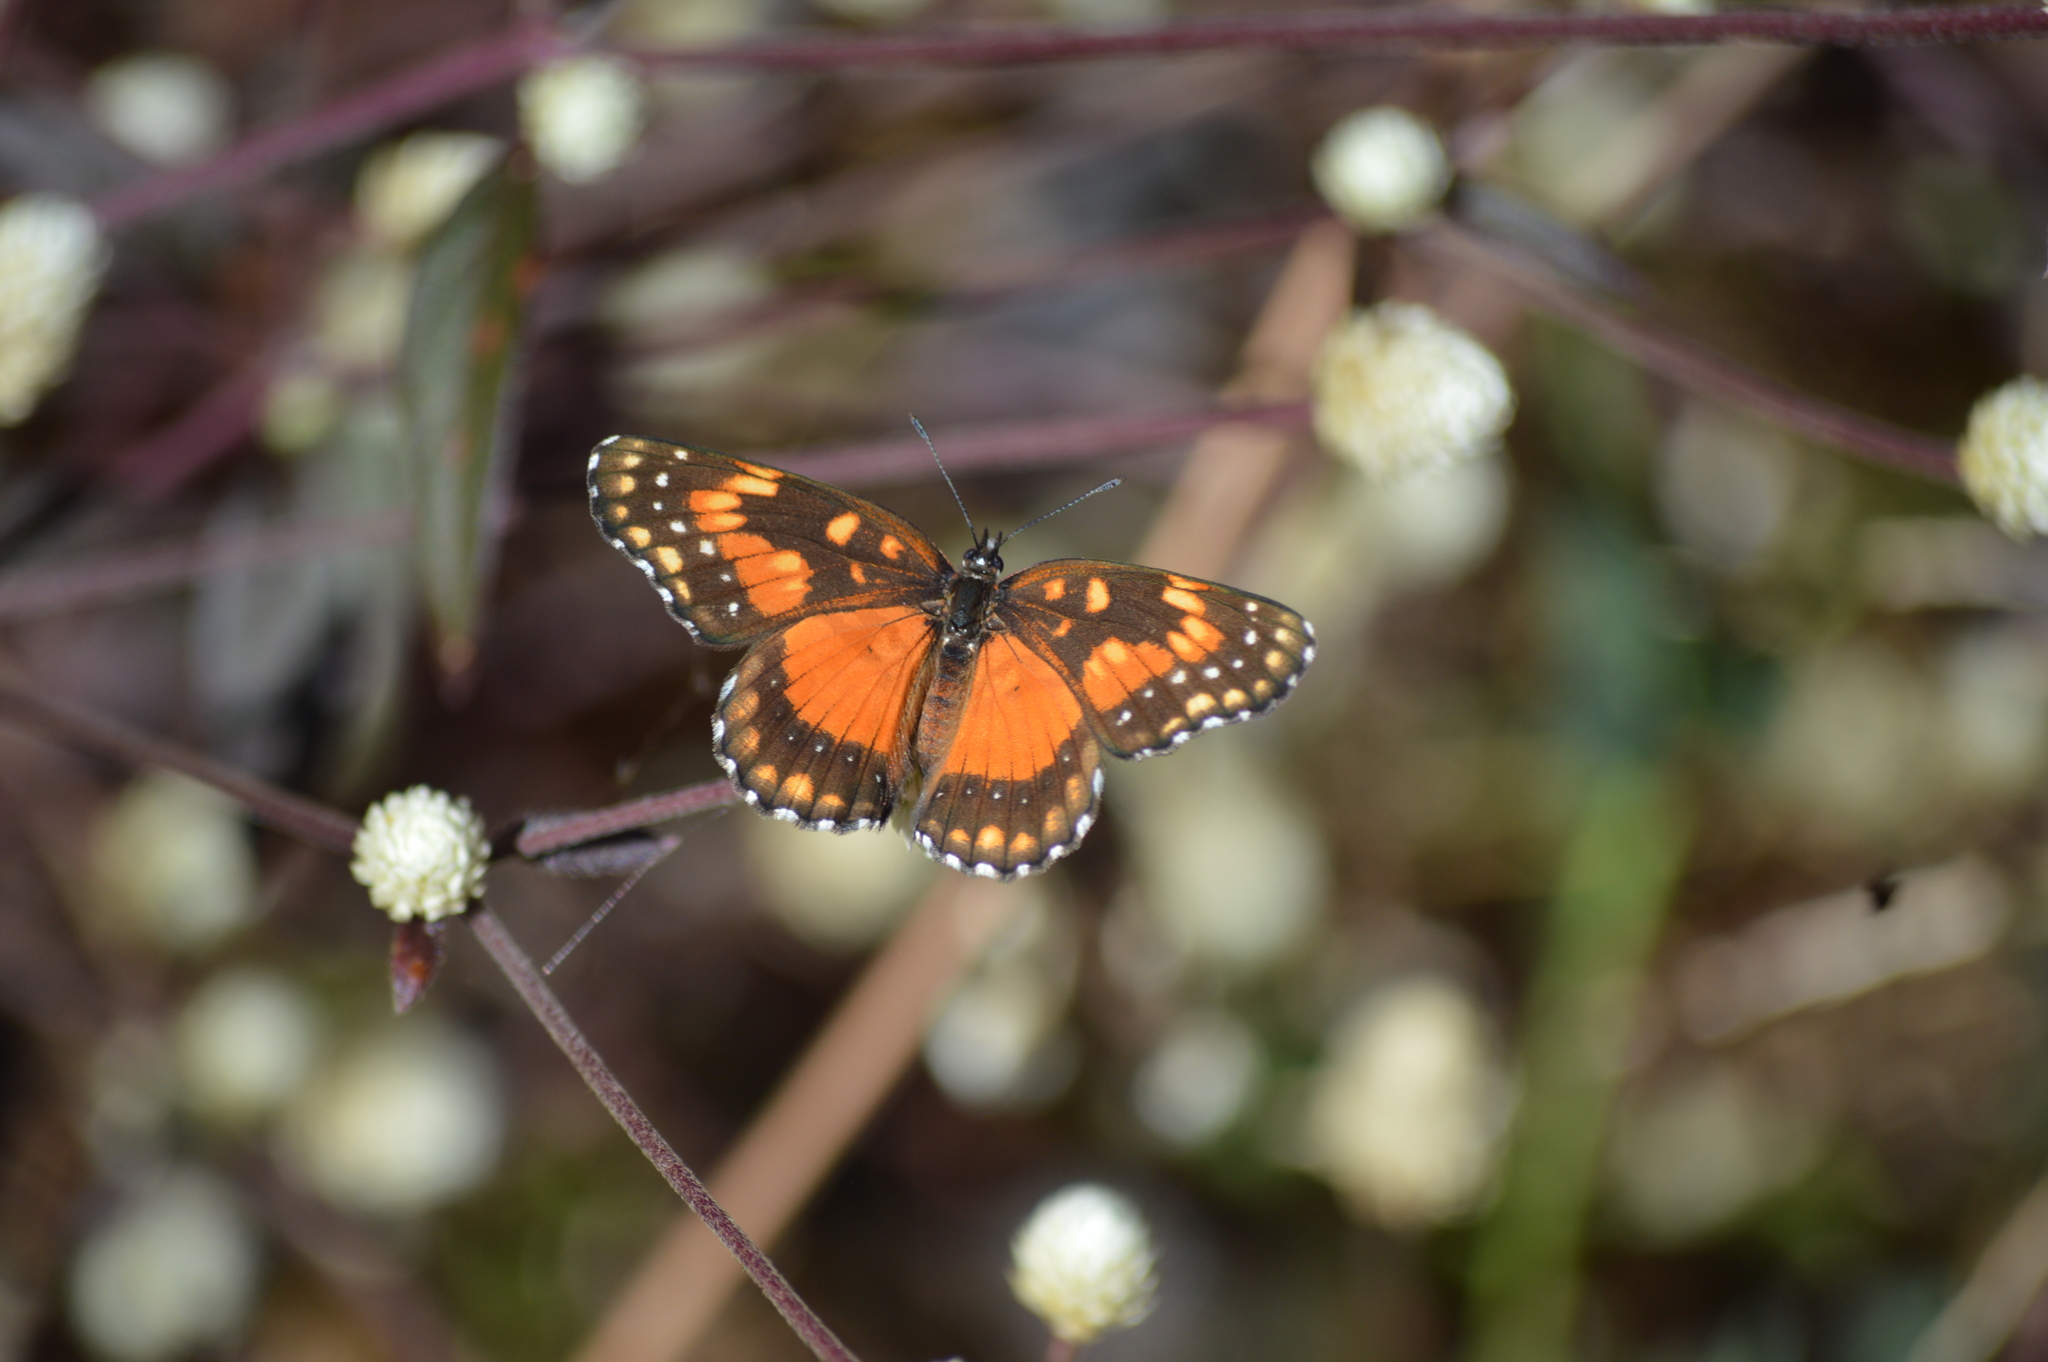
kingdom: Animalia
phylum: Arthropoda
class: Insecta
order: Lepidoptera
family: Nymphalidae
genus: Chlosyne
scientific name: Chlosyne lacinia
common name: Bordered patch
